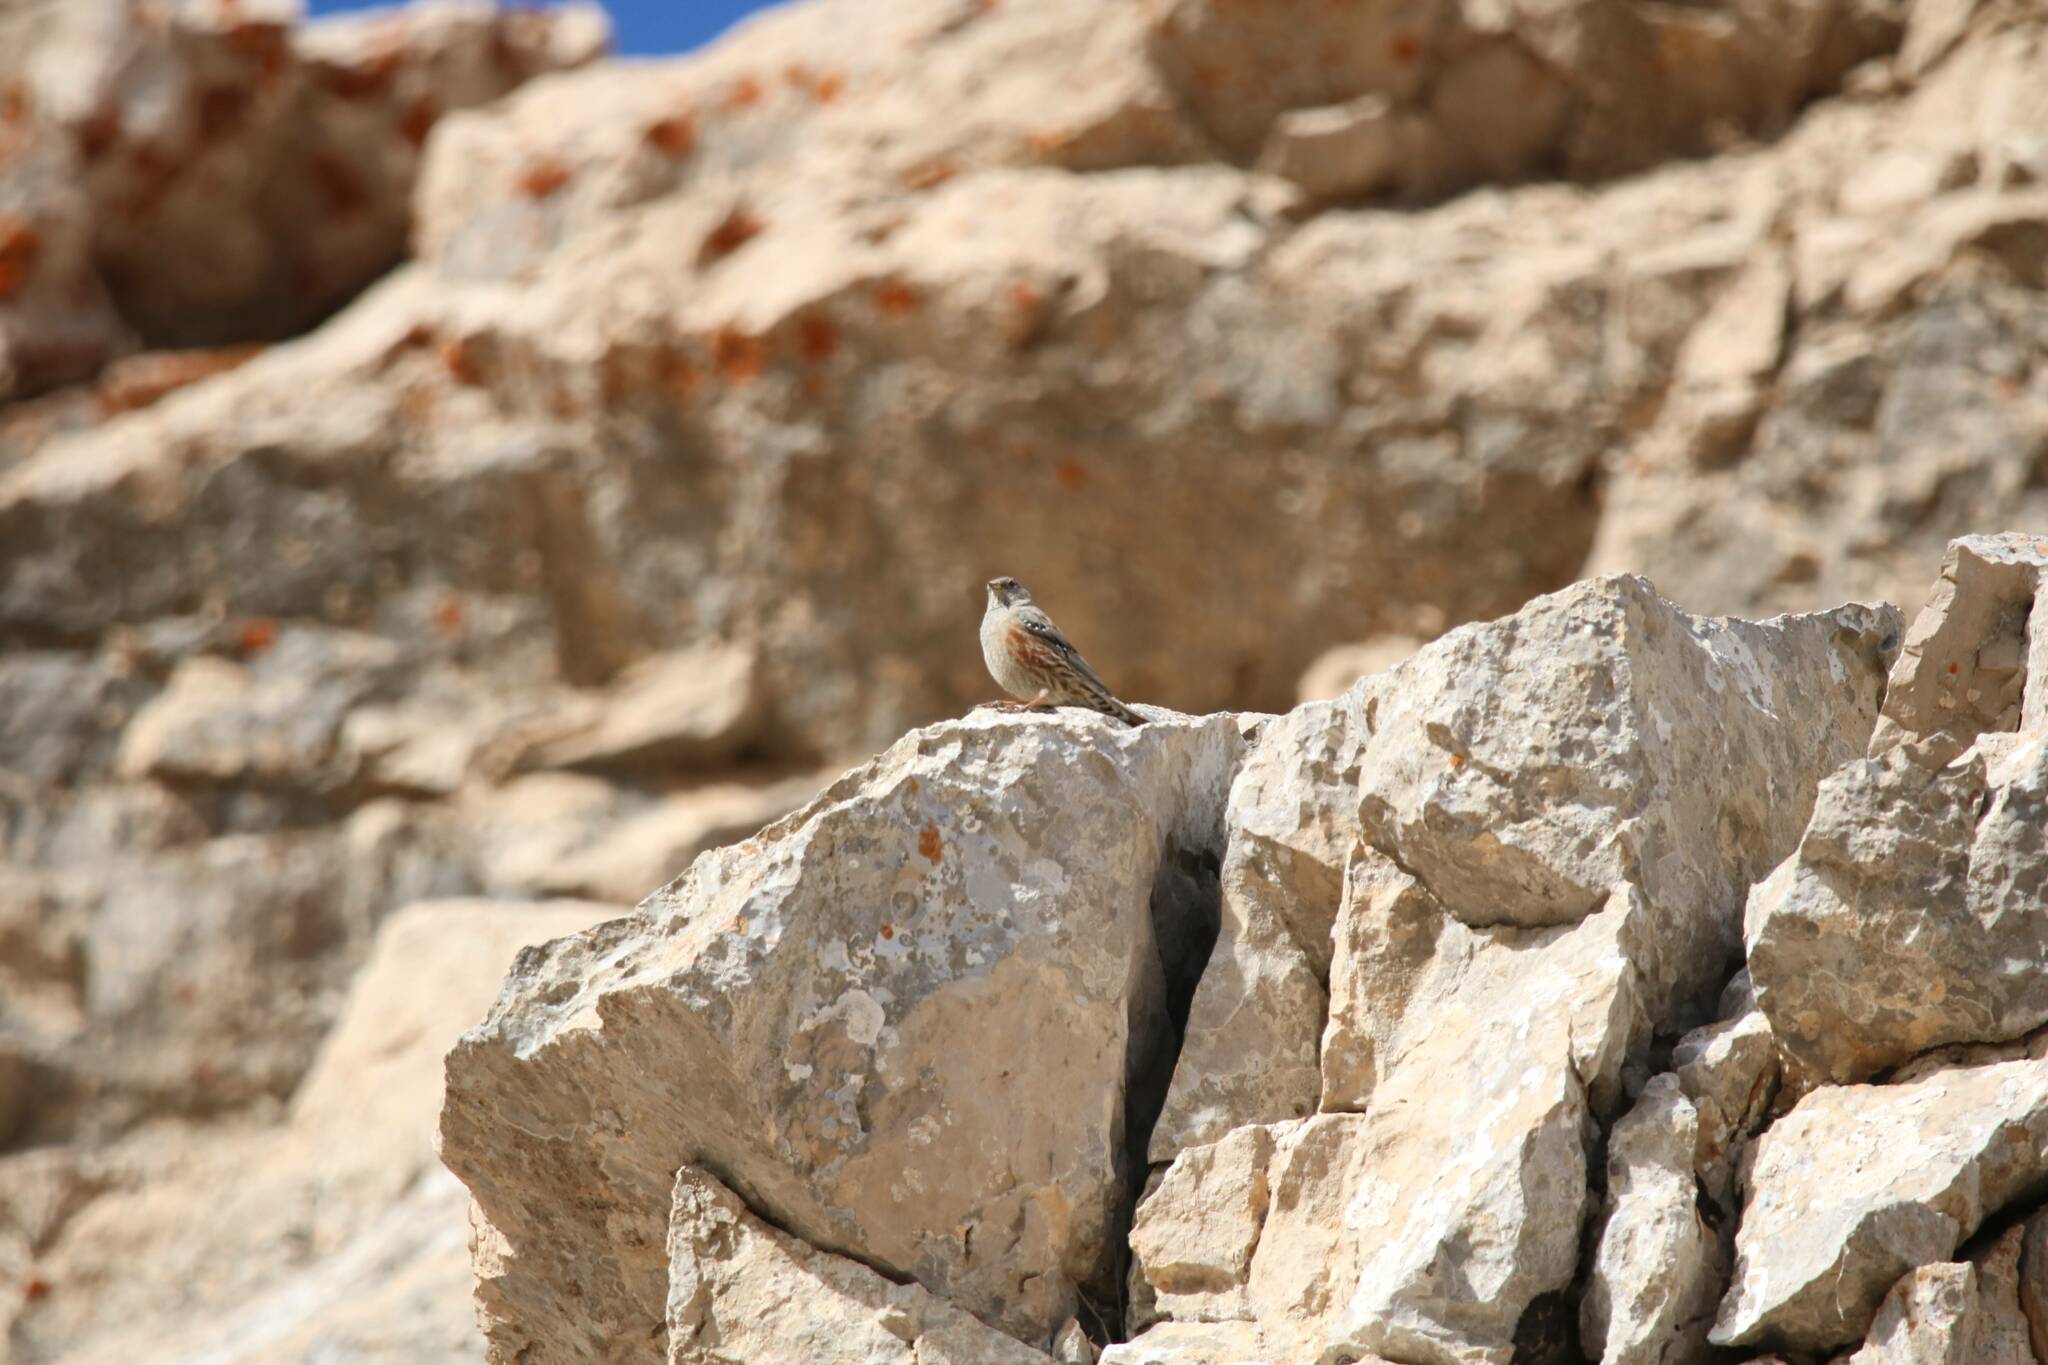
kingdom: Animalia
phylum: Chordata
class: Aves
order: Passeriformes
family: Prunellidae
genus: Prunella
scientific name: Prunella collaris
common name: Alpine accentor
